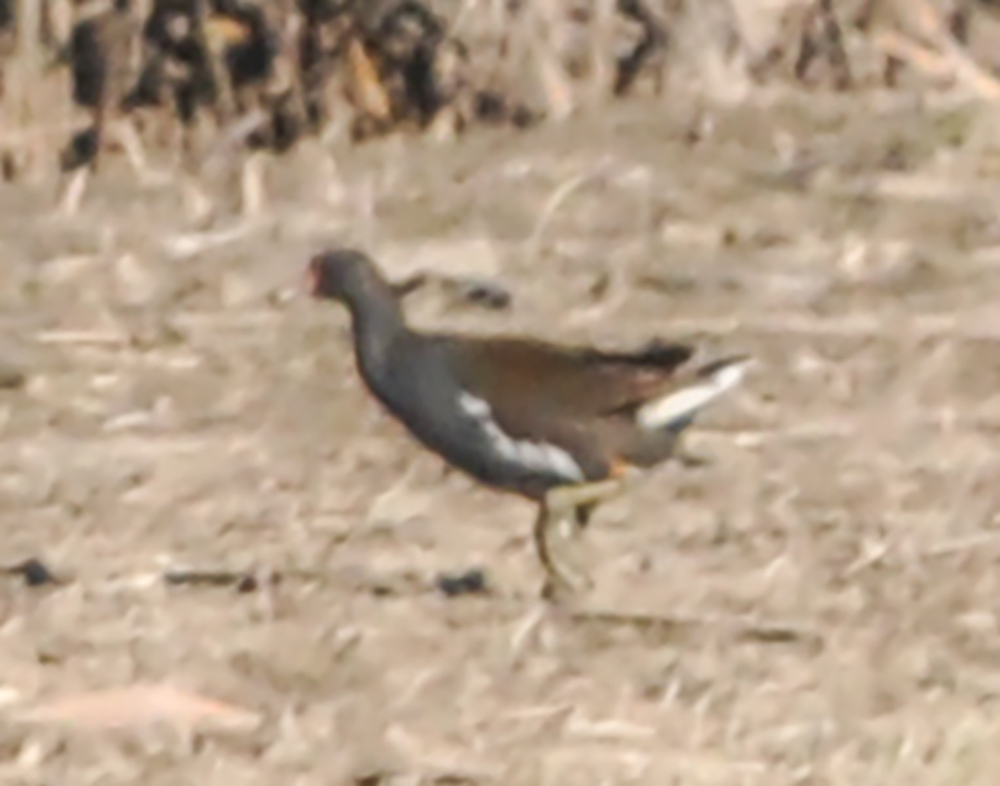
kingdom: Animalia
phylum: Chordata
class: Aves
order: Gruiformes
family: Rallidae
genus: Gallinula
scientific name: Gallinula chloropus
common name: Common moorhen
